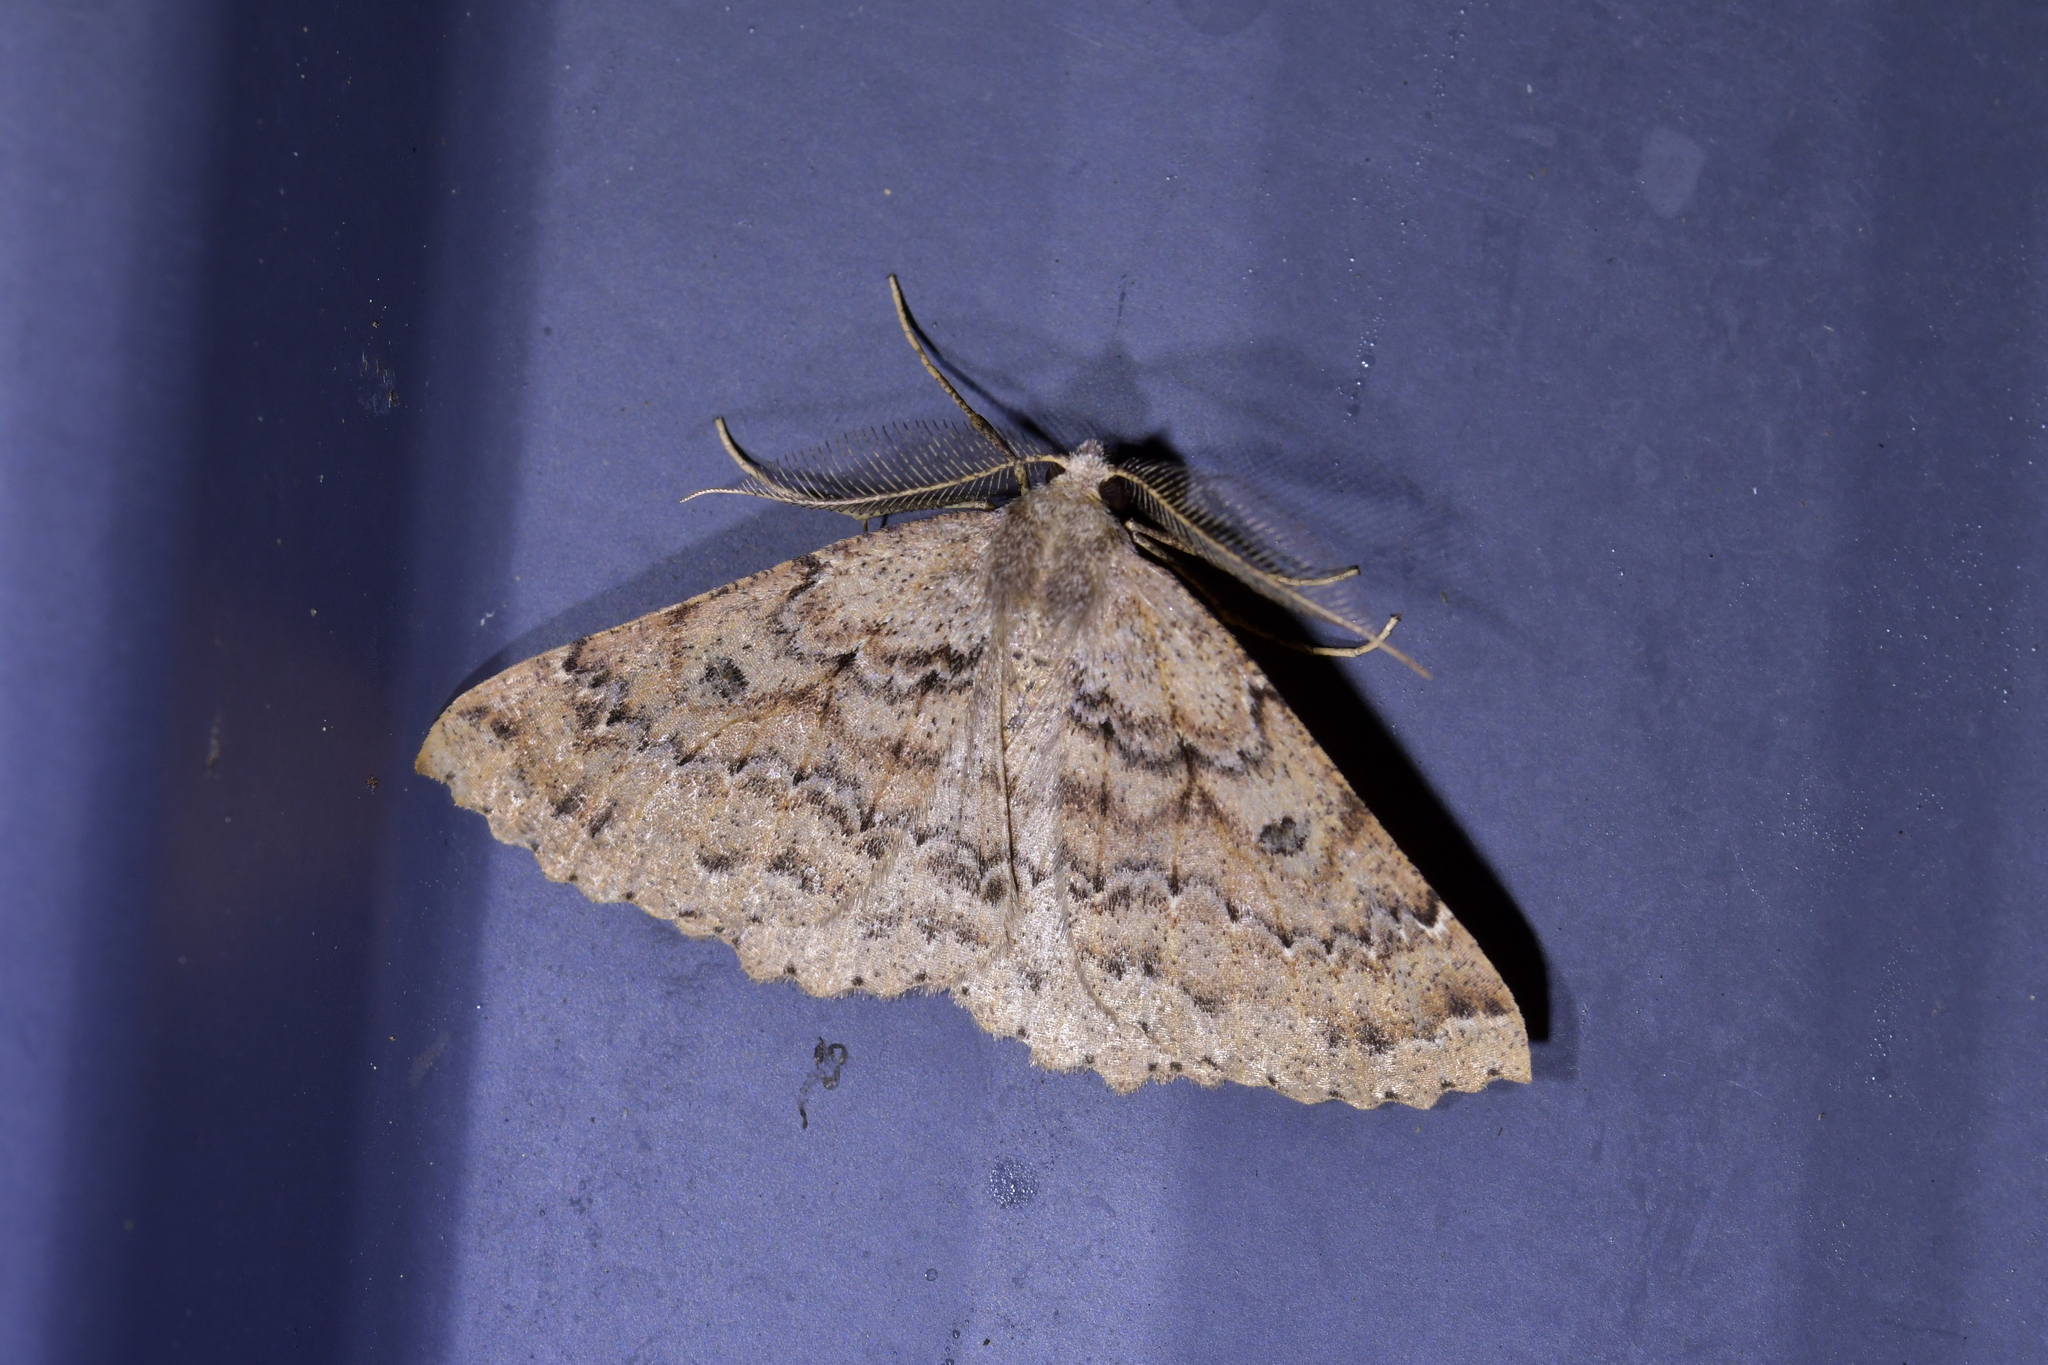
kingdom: Animalia
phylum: Arthropoda
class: Insecta
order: Lepidoptera
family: Geometridae
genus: Cleora
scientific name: Cleora scriptaria
